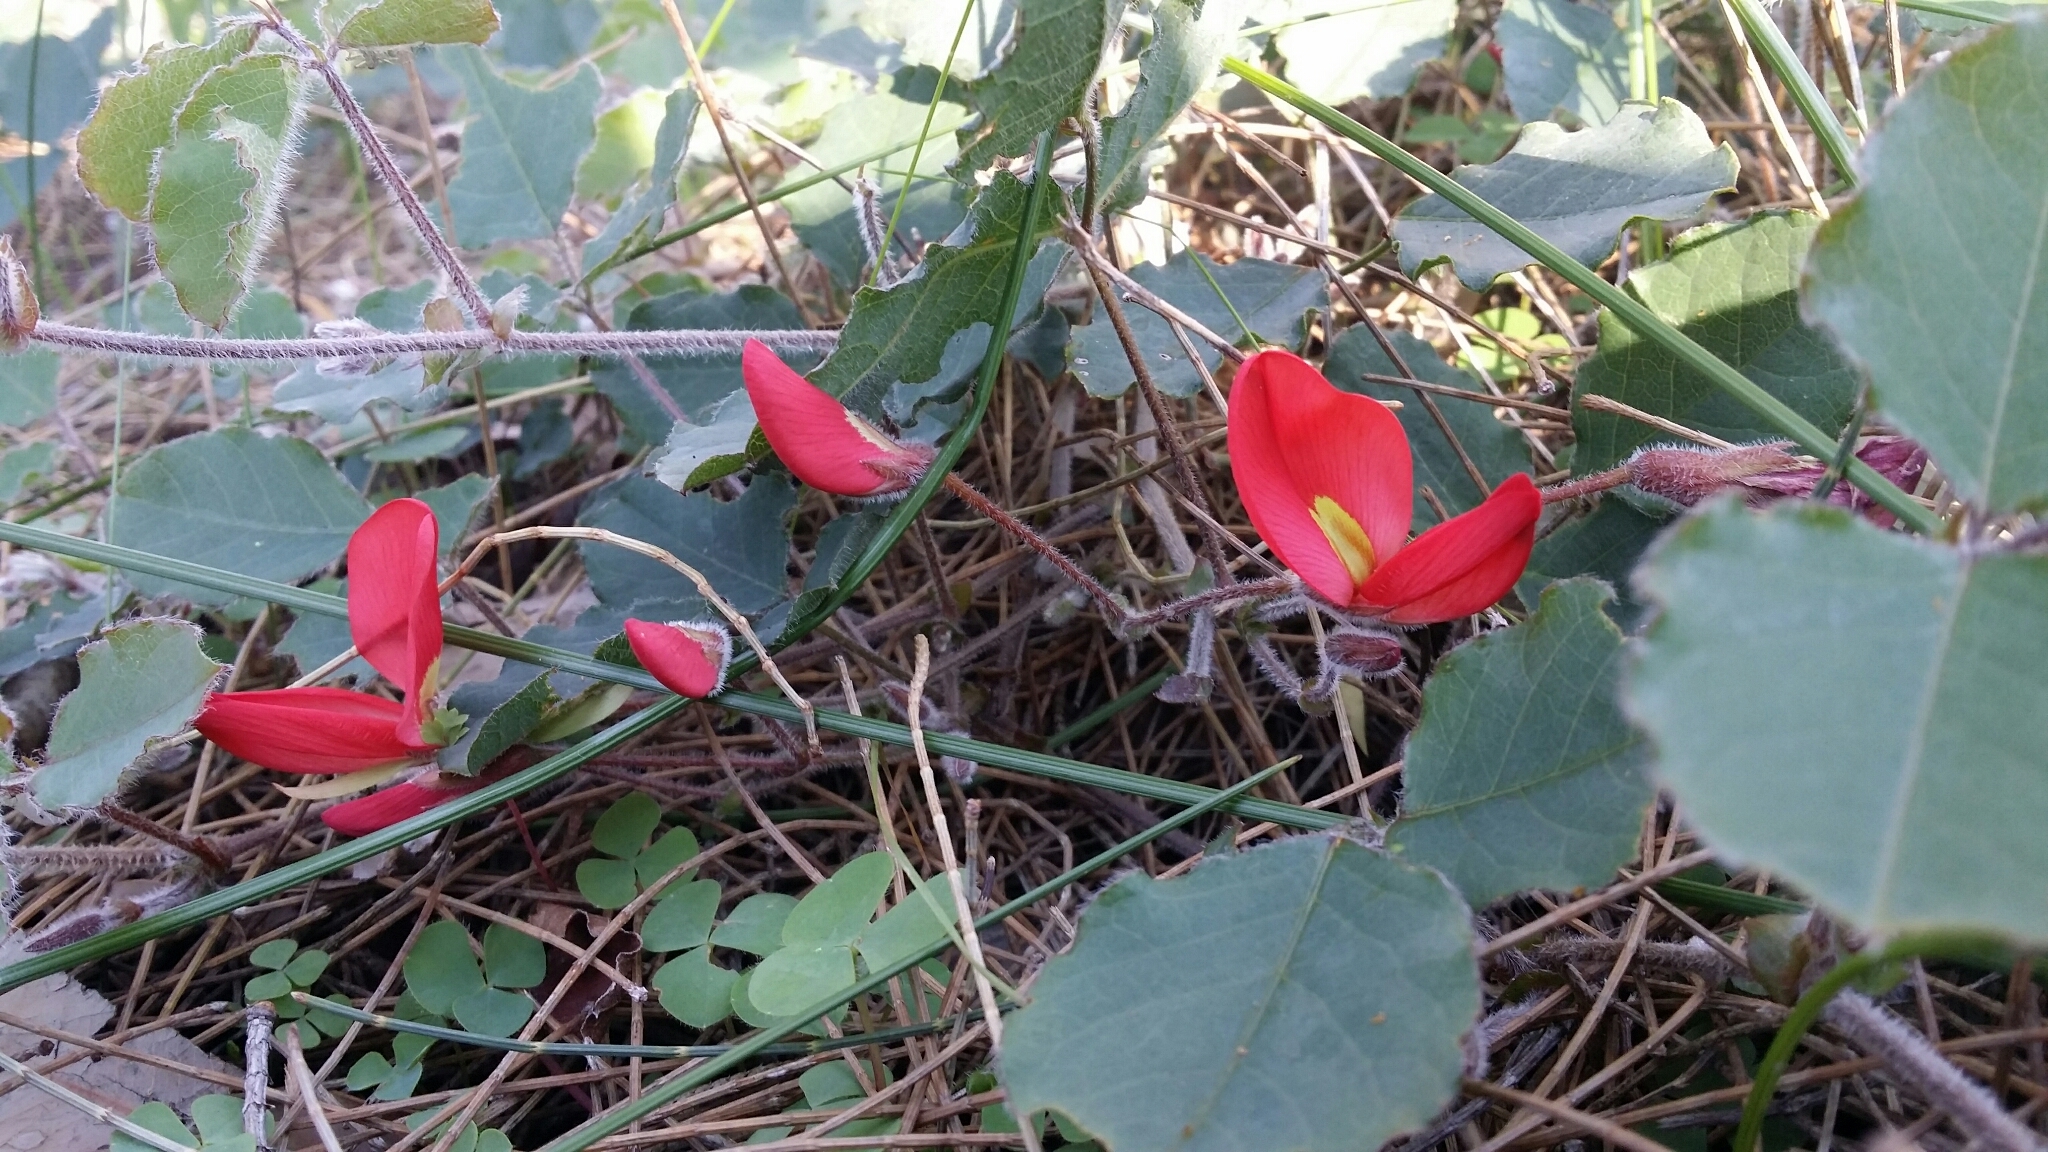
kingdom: Plantae
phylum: Tracheophyta
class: Magnoliopsida
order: Fabales
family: Fabaceae
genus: Kennedia
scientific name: Kennedia prostrata
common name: Running-postman
